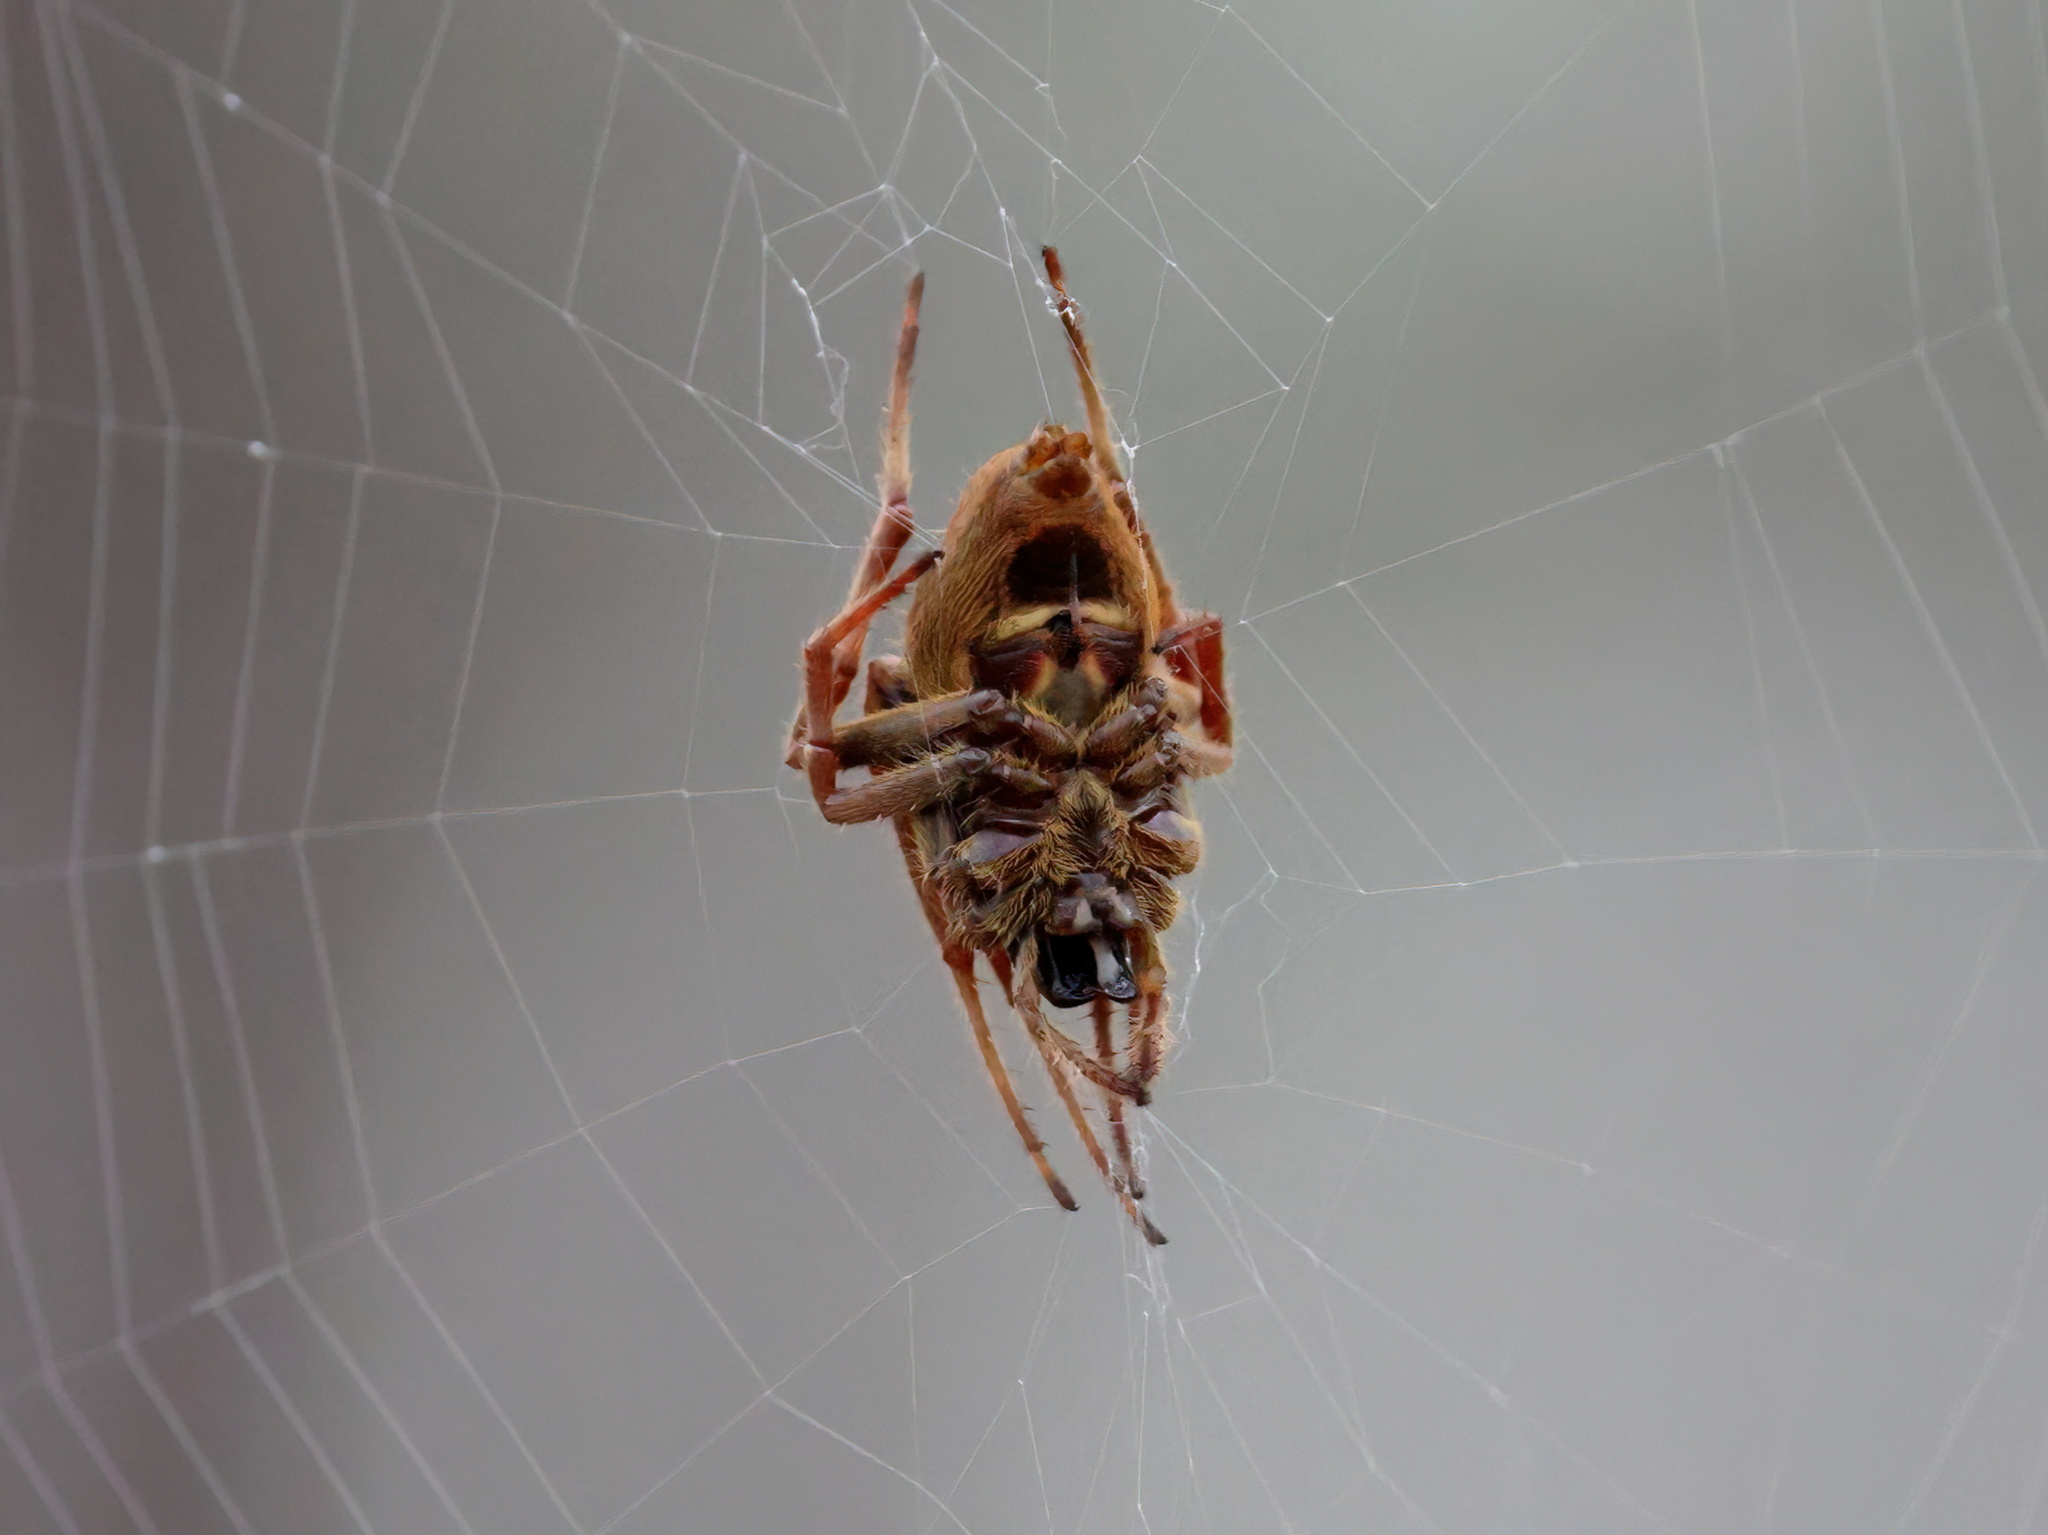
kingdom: Animalia
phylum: Arthropoda
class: Arachnida
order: Araneae
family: Araneidae
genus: Eriophora
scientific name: Eriophora ravilla
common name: Orb weavers
